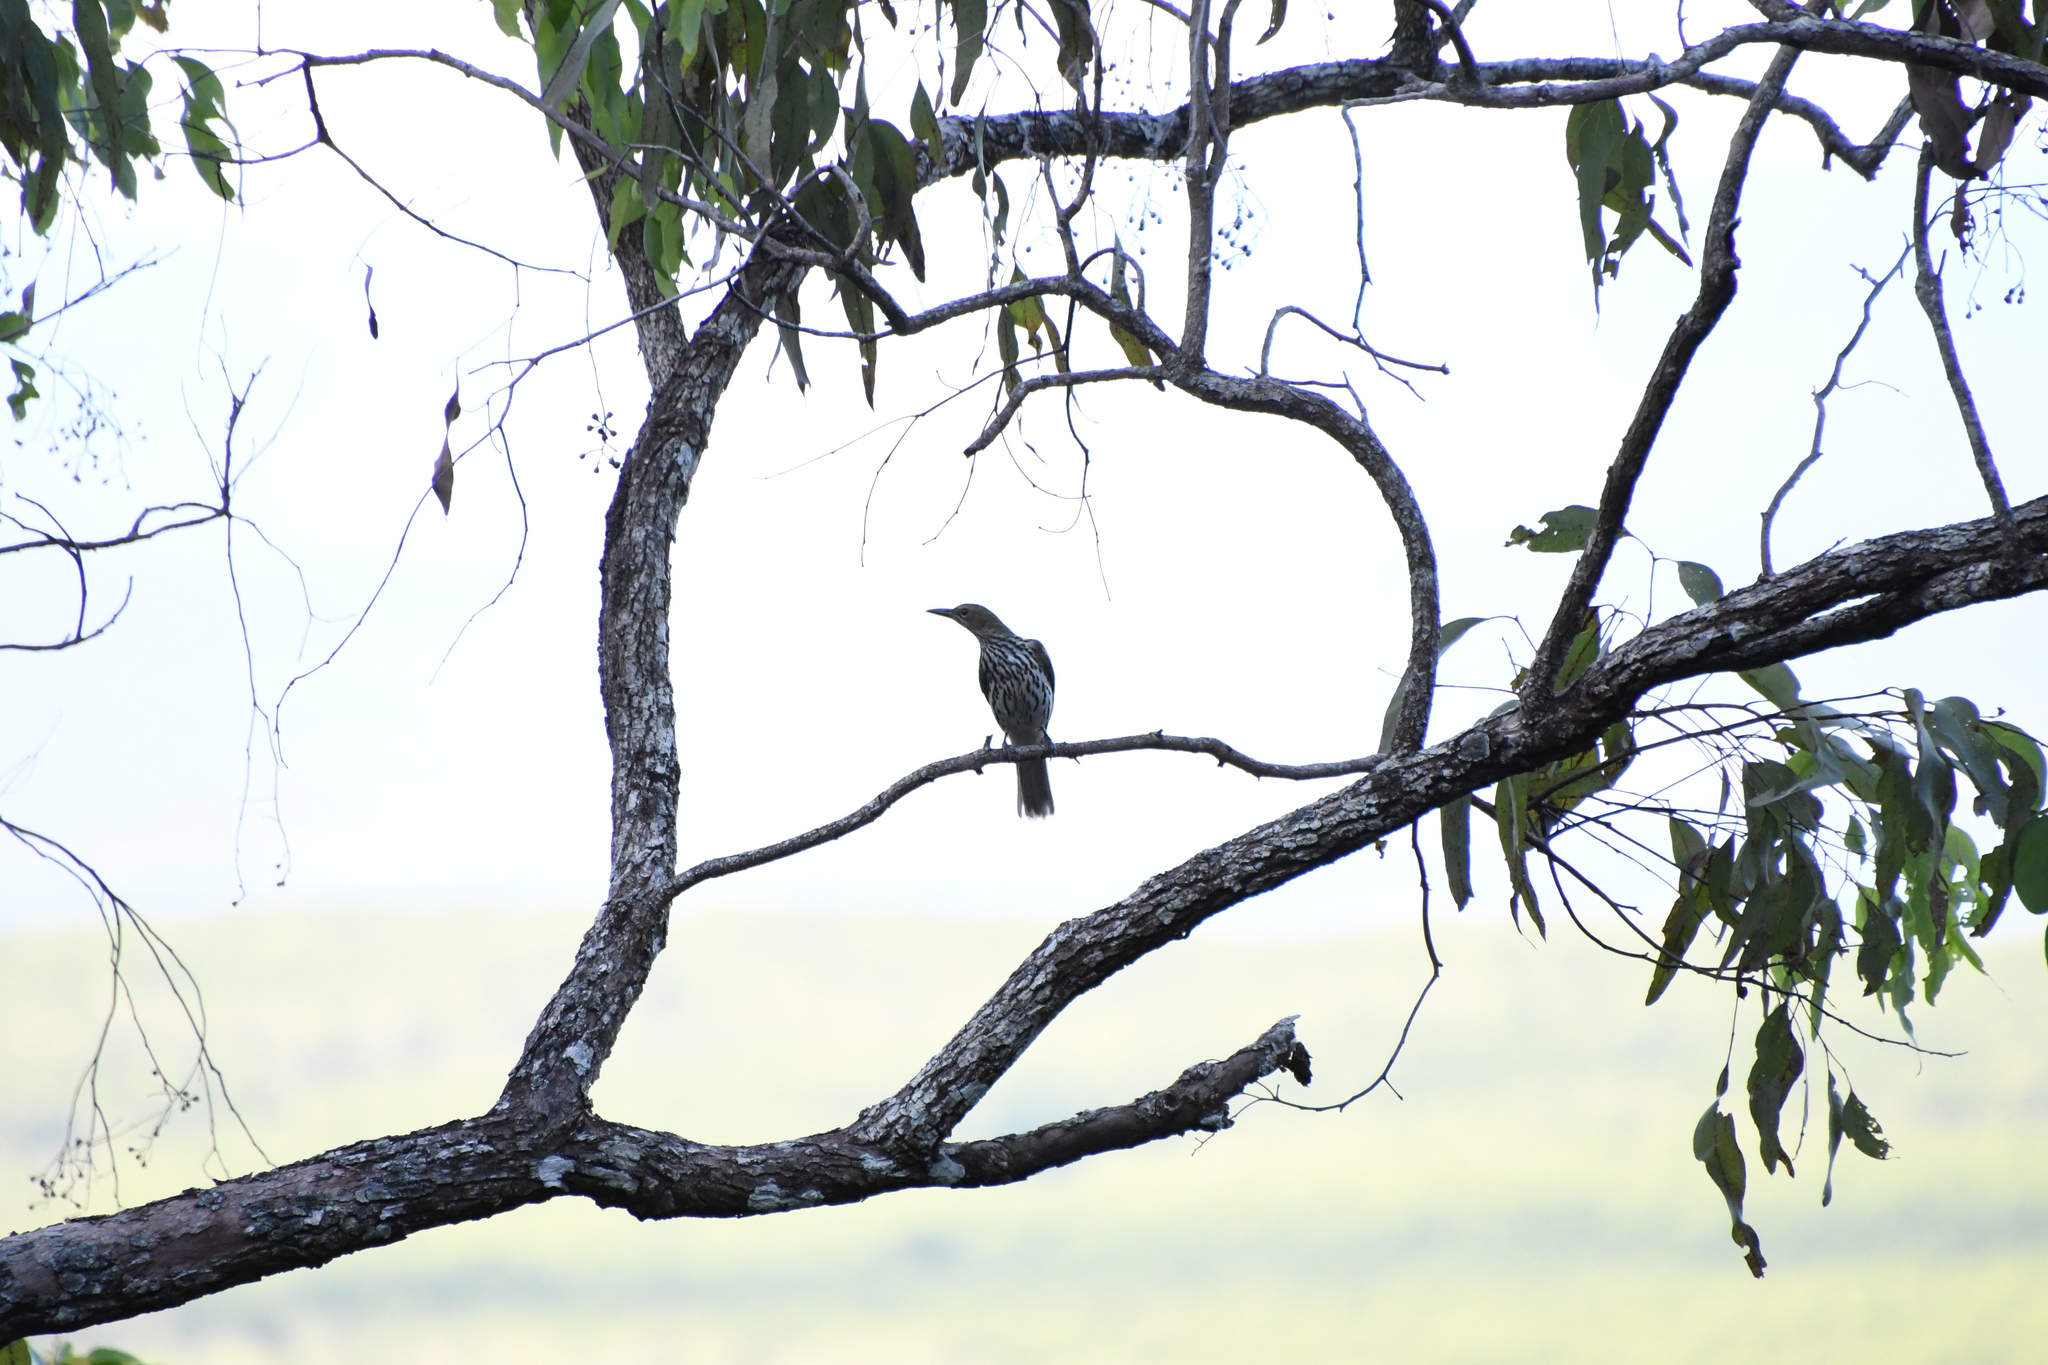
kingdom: Animalia
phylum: Chordata
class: Aves
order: Passeriformes
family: Oriolidae
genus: Oriolus
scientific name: Oriolus sagittatus
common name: Olive-backed oriole
